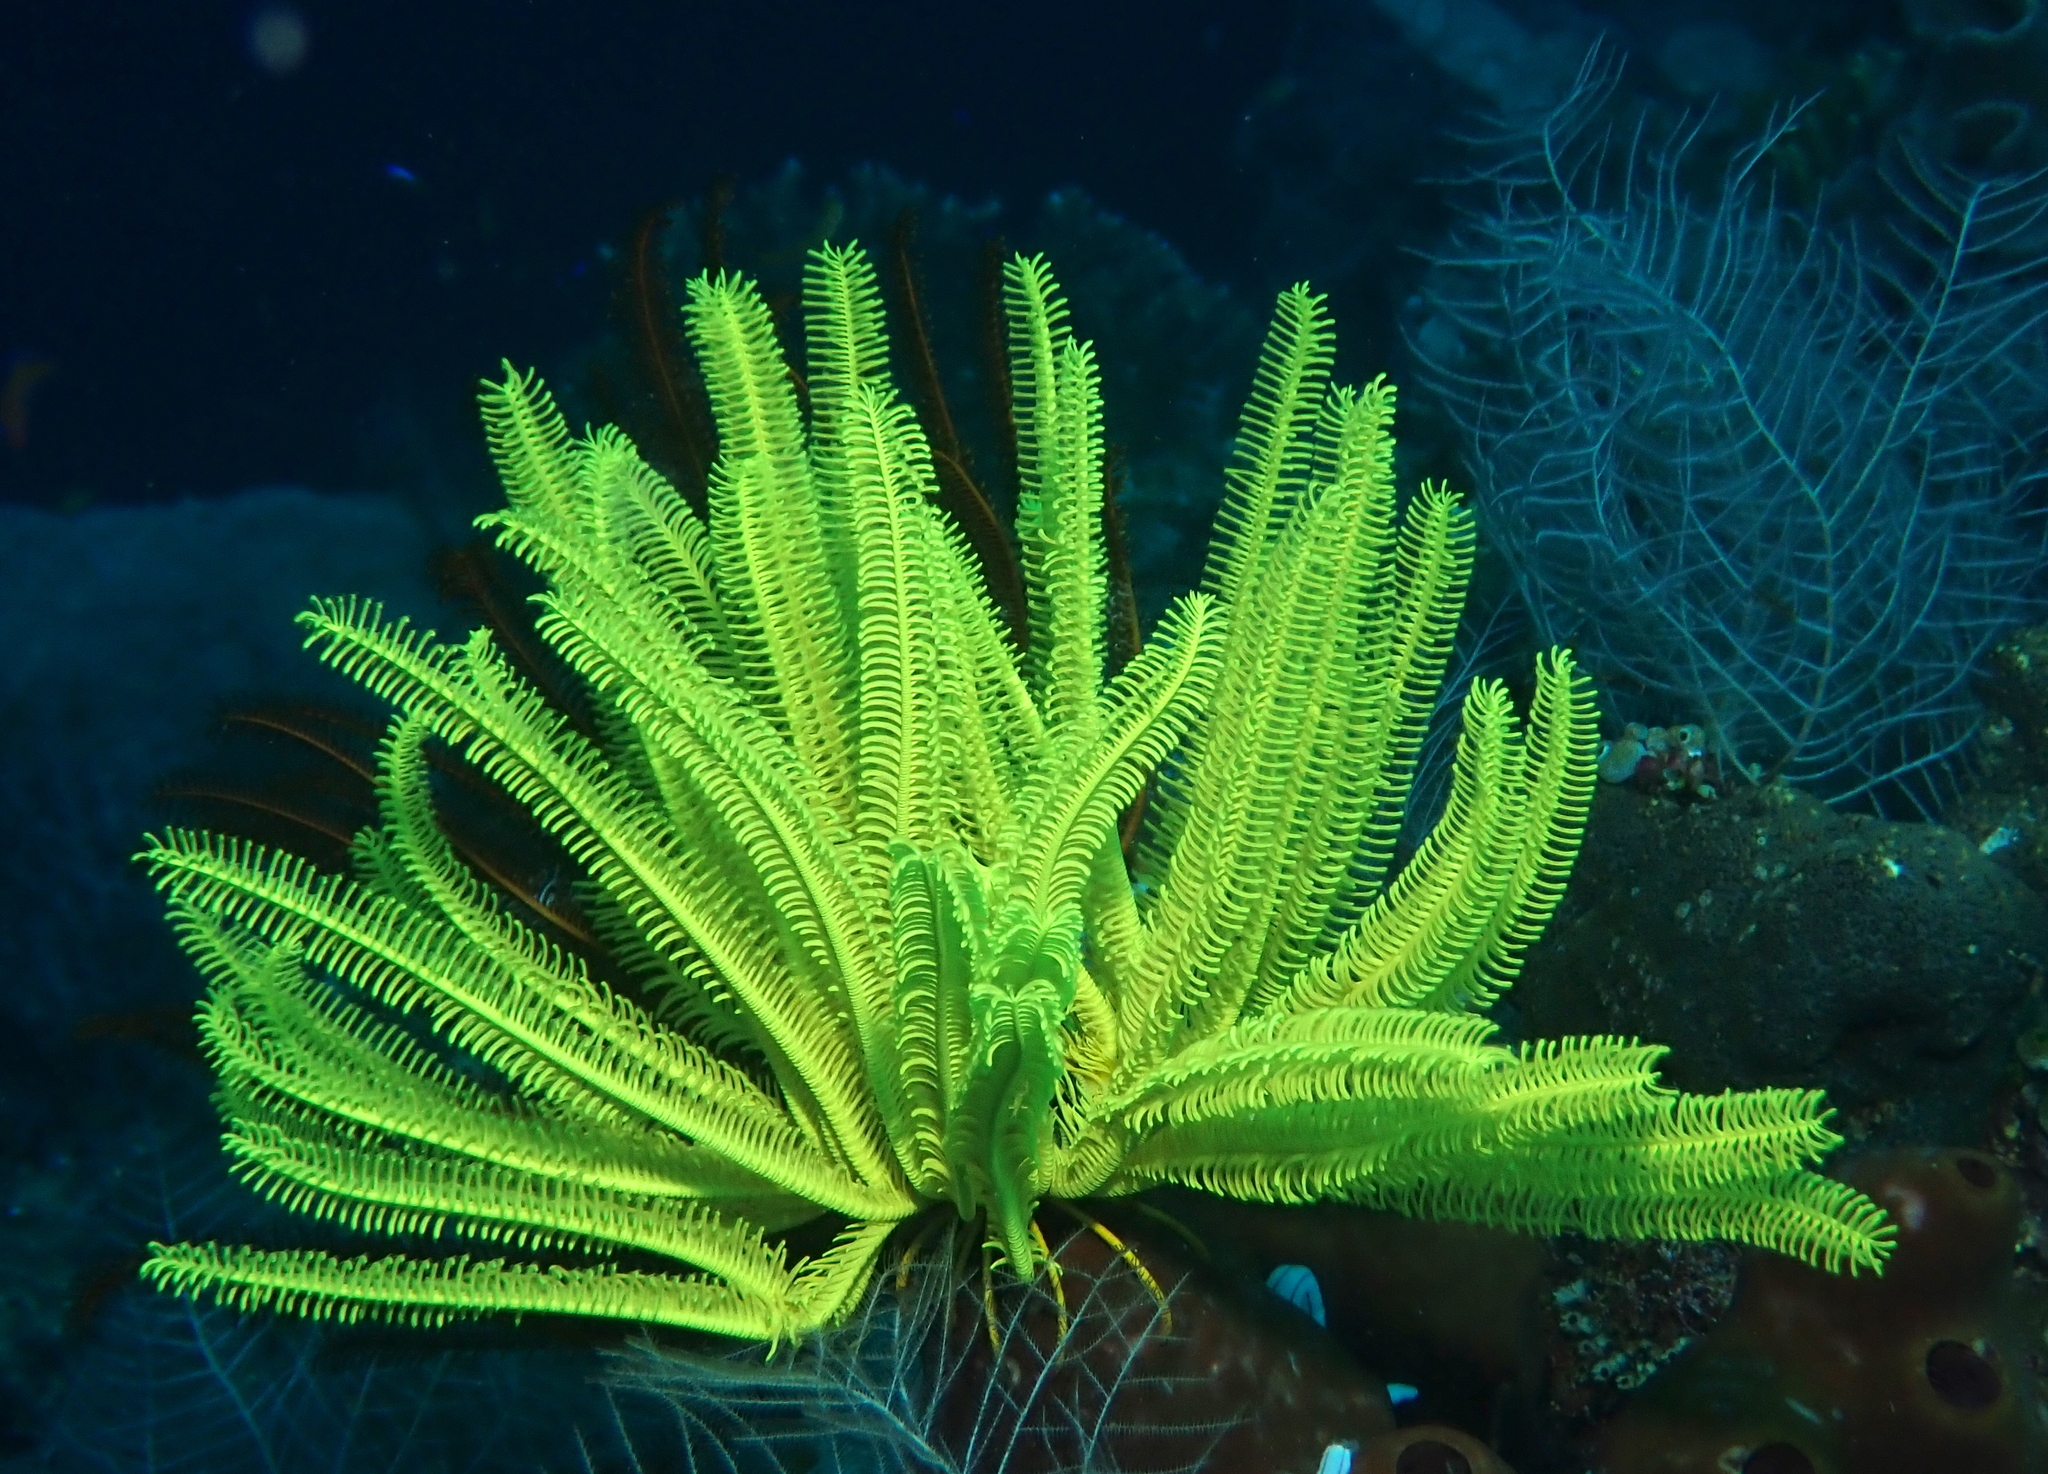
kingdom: Animalia
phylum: Echinodermata
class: Crinoidea
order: Comatulida
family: Comatulidae
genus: Anneissia
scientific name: Anneissia bennetti
